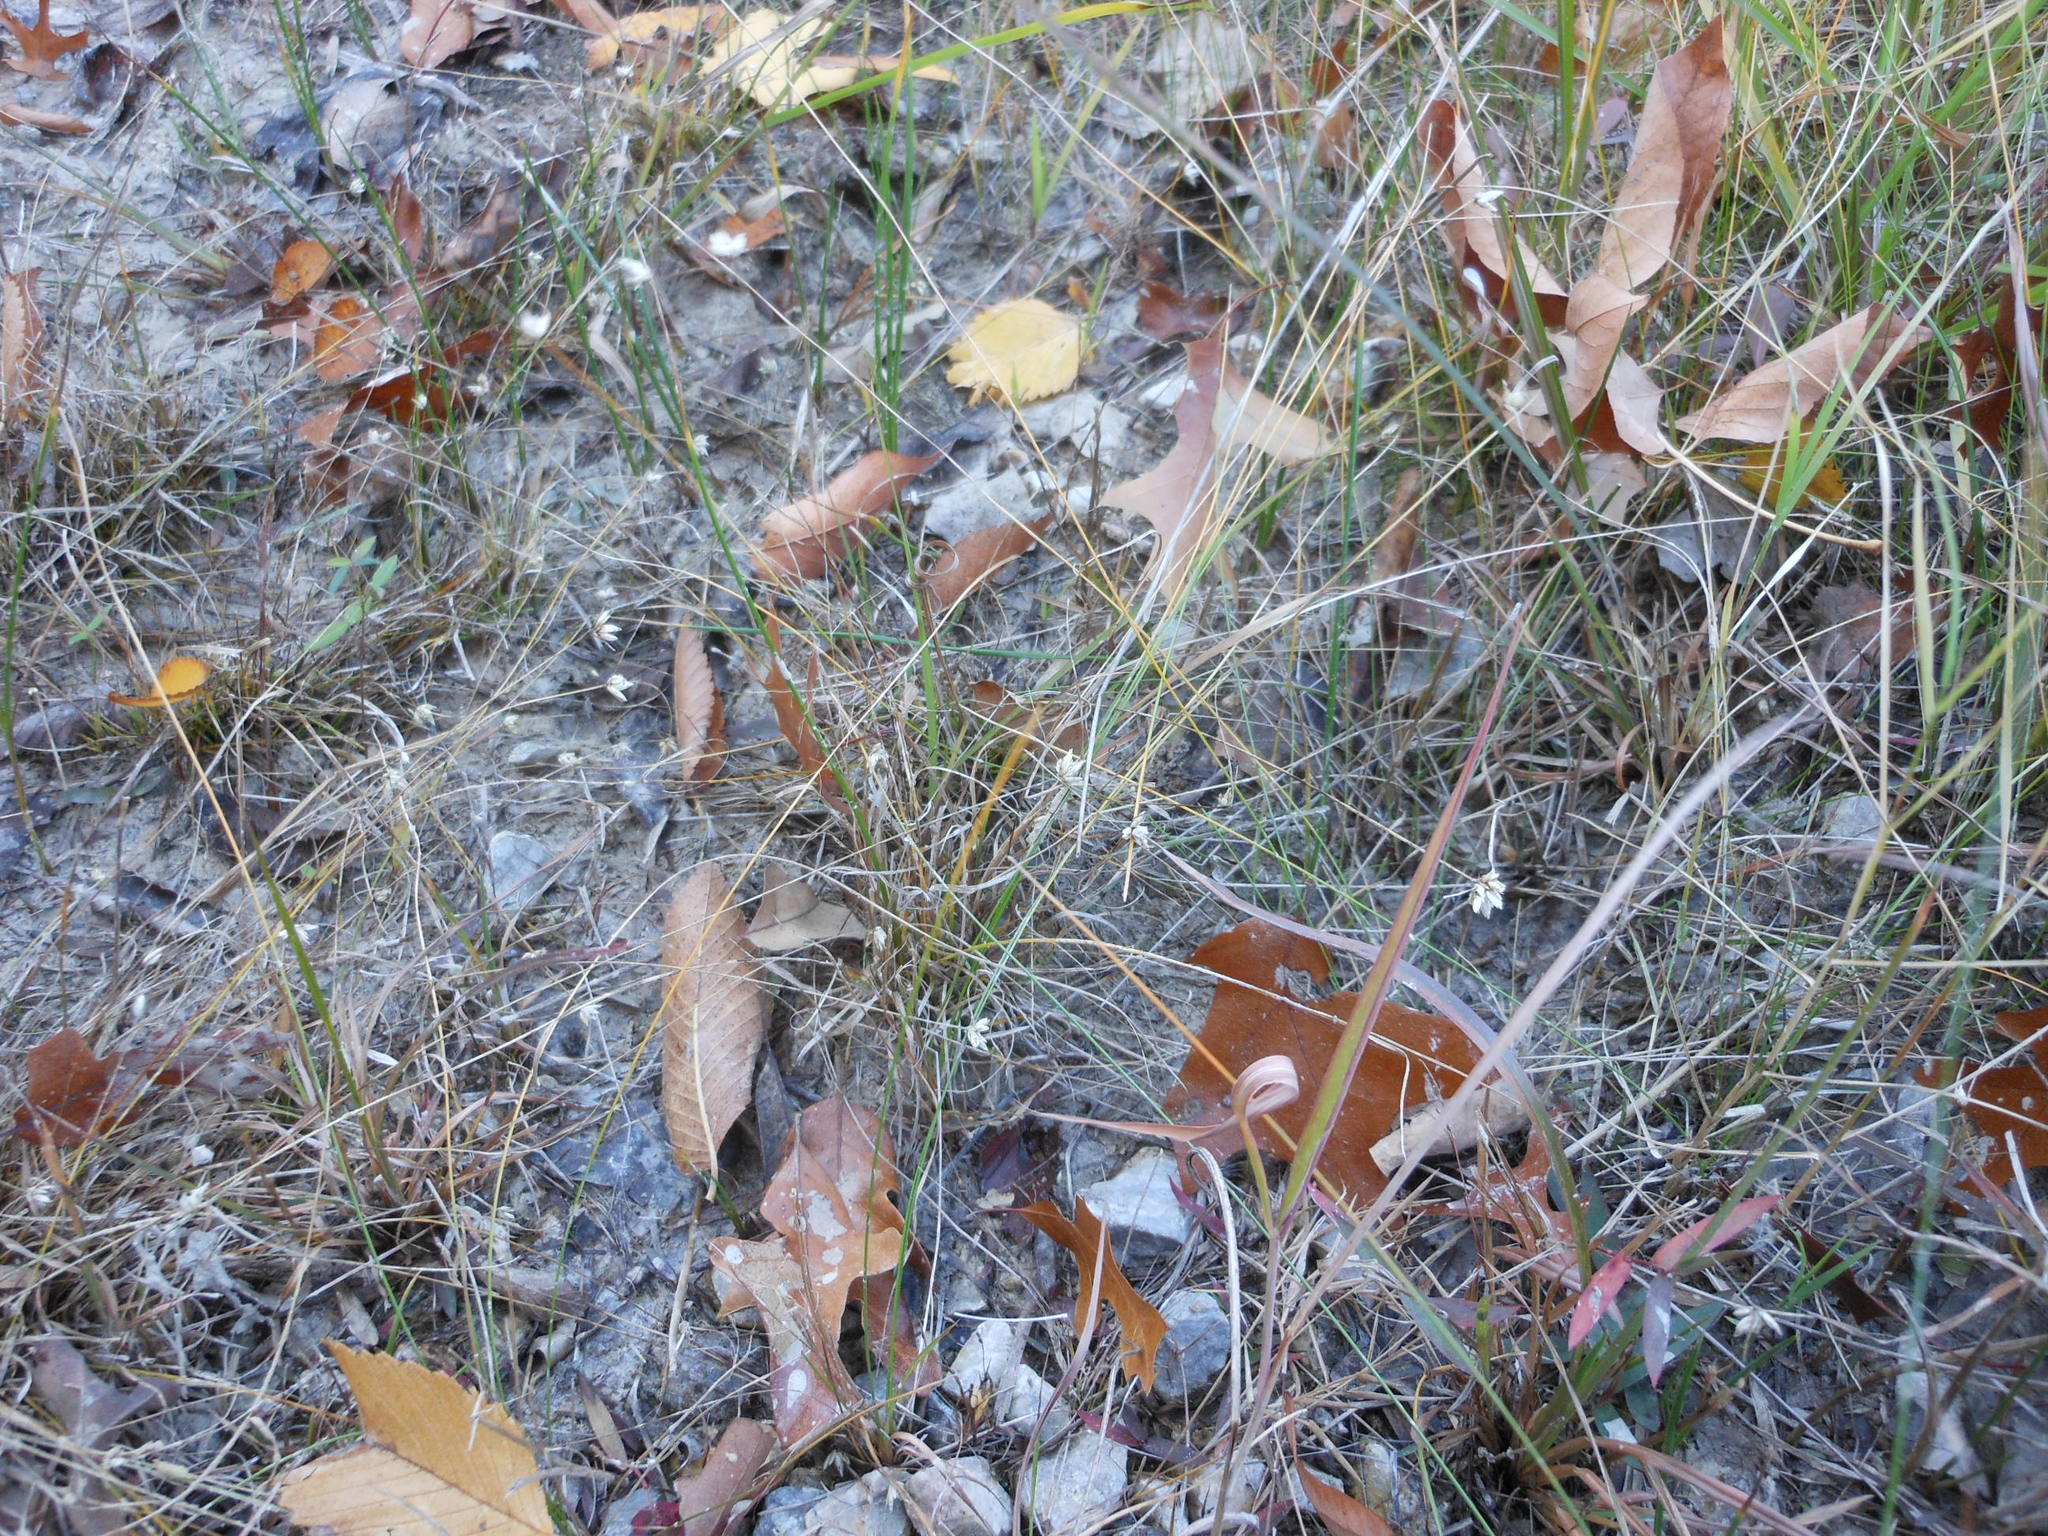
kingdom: Plantae
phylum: Tracheophyta
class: Liliopsida
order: Poales
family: Cyperaceae
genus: Rhynchospora
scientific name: Rhynchospora nivea
